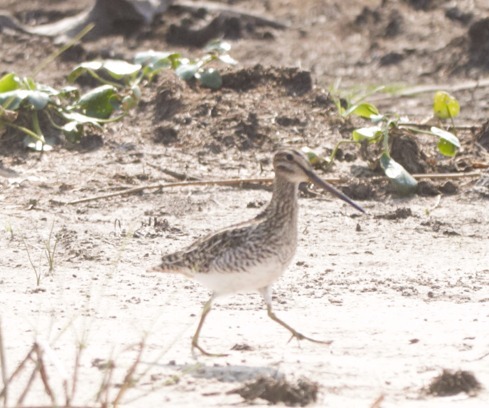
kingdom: Animalia
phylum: Chordata
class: Aves
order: Charadriiformes
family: Scolopacidae
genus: Gallinago
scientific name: Gallinago paraguaiae
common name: South american snipe
